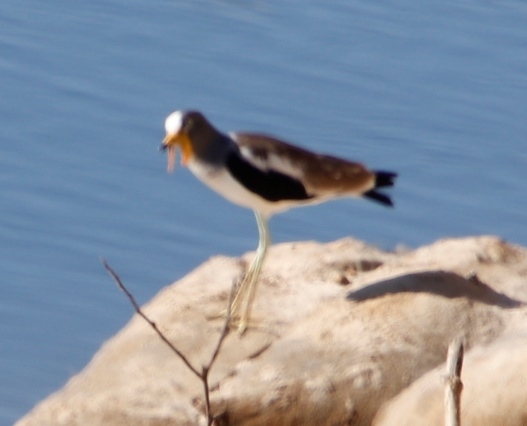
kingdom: Animalia
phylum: Chordata
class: Aves
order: Charadriiformes
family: Charadriidae
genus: Vanellus
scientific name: Vanellus albiceps
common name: White-crowned lapwing
